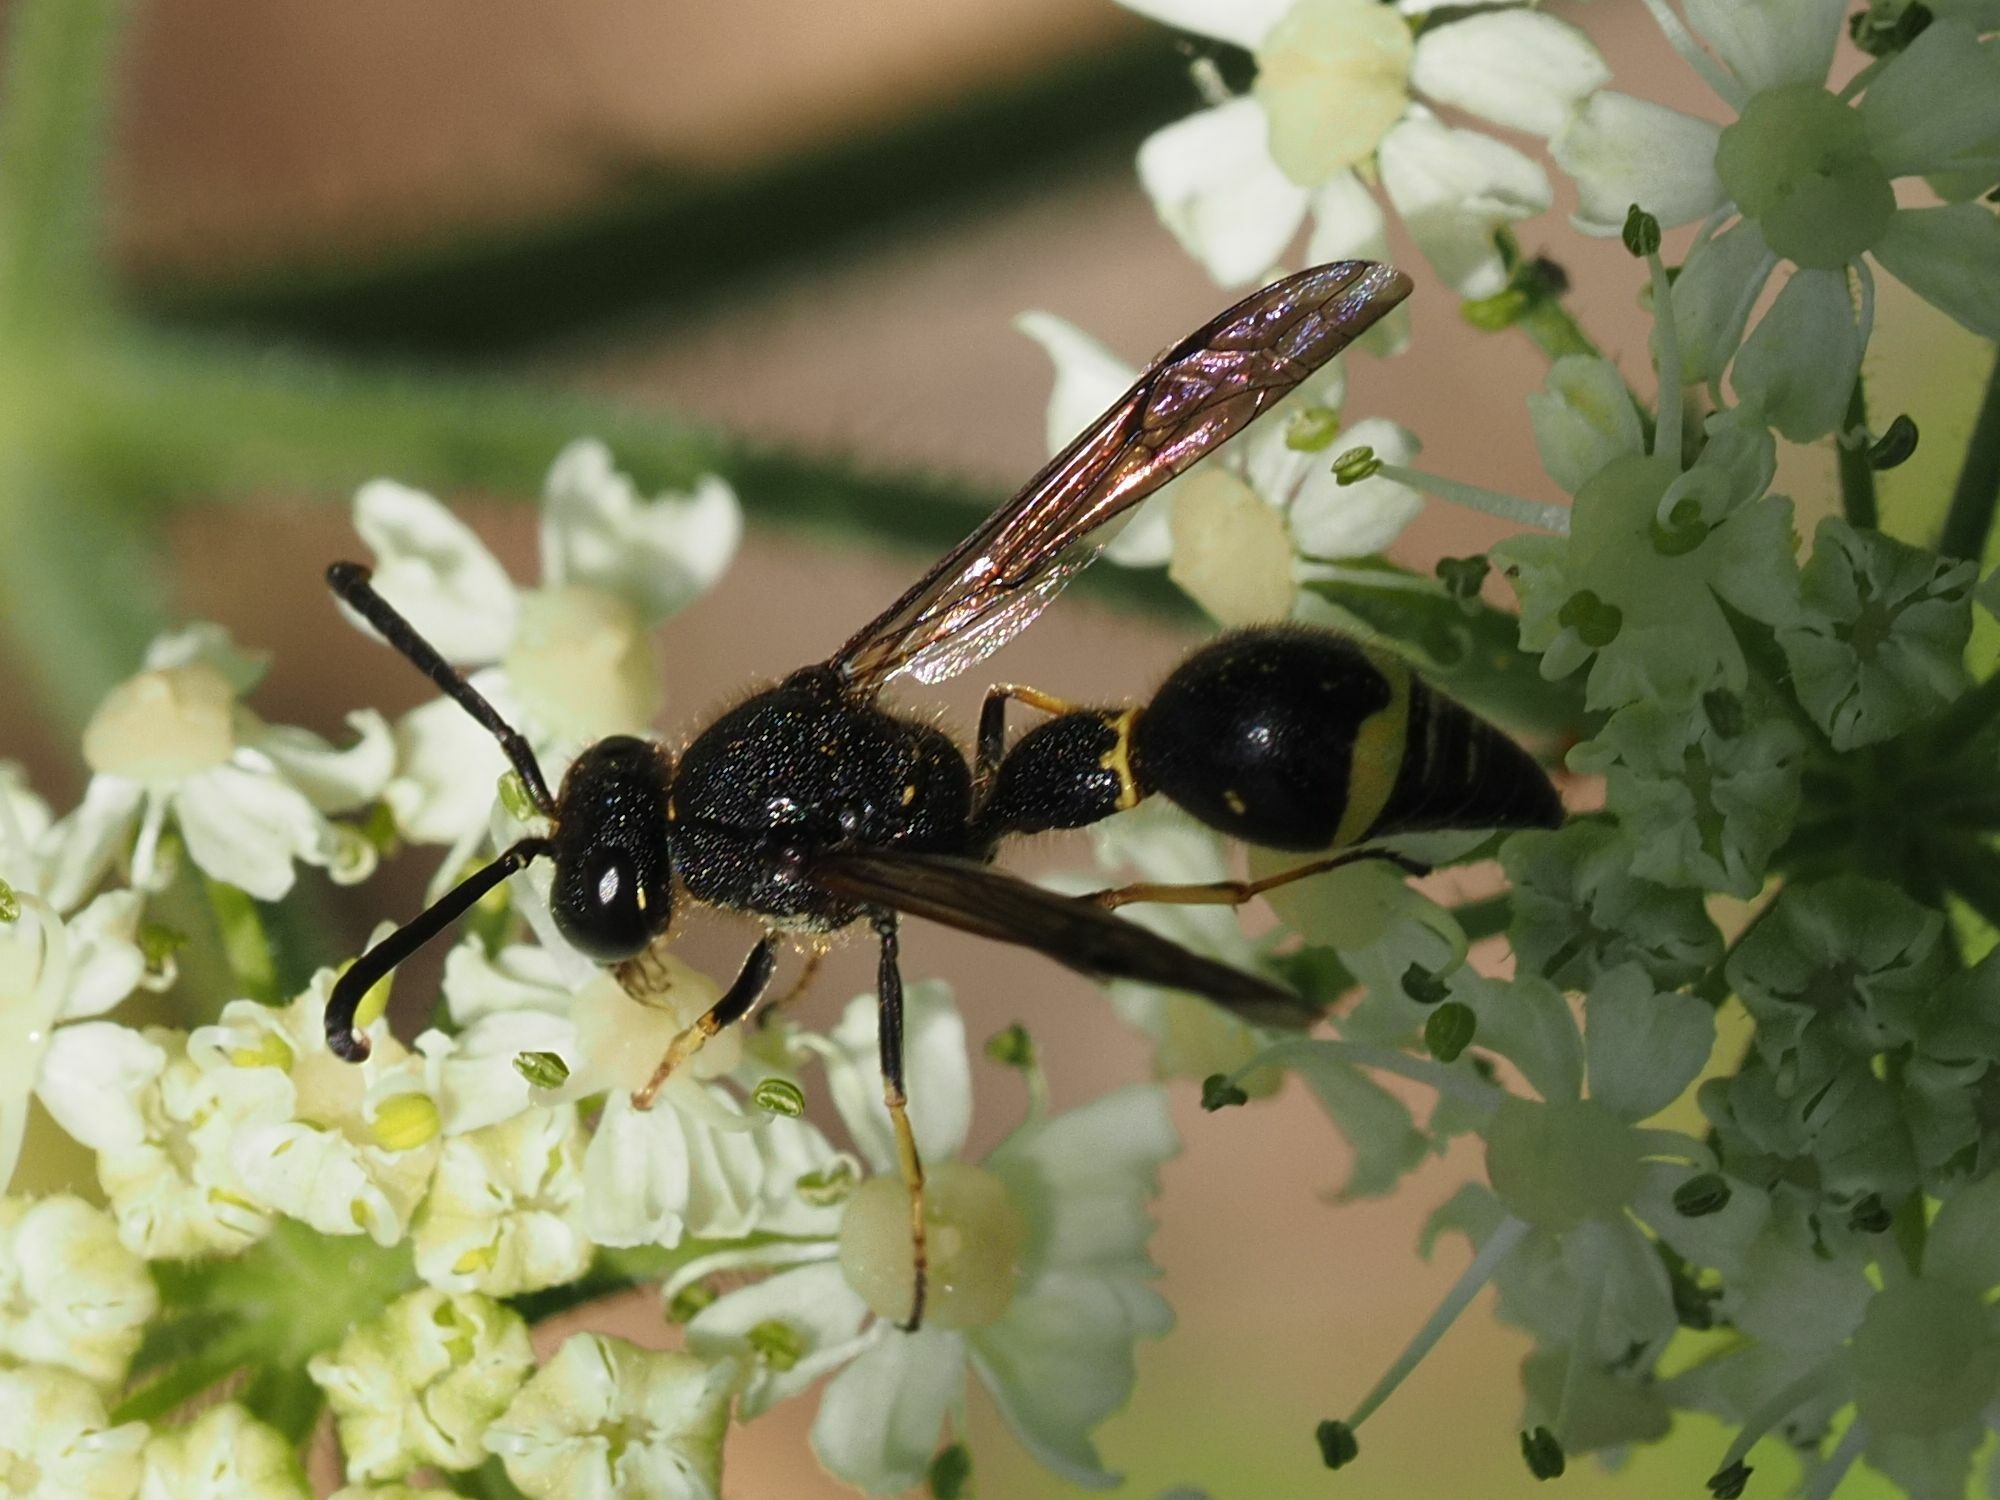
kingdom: Animalia
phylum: Arthropoda
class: Insecta
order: Hymenoptera
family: Vespidae
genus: Eumenes
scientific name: Eumenes coronatus
